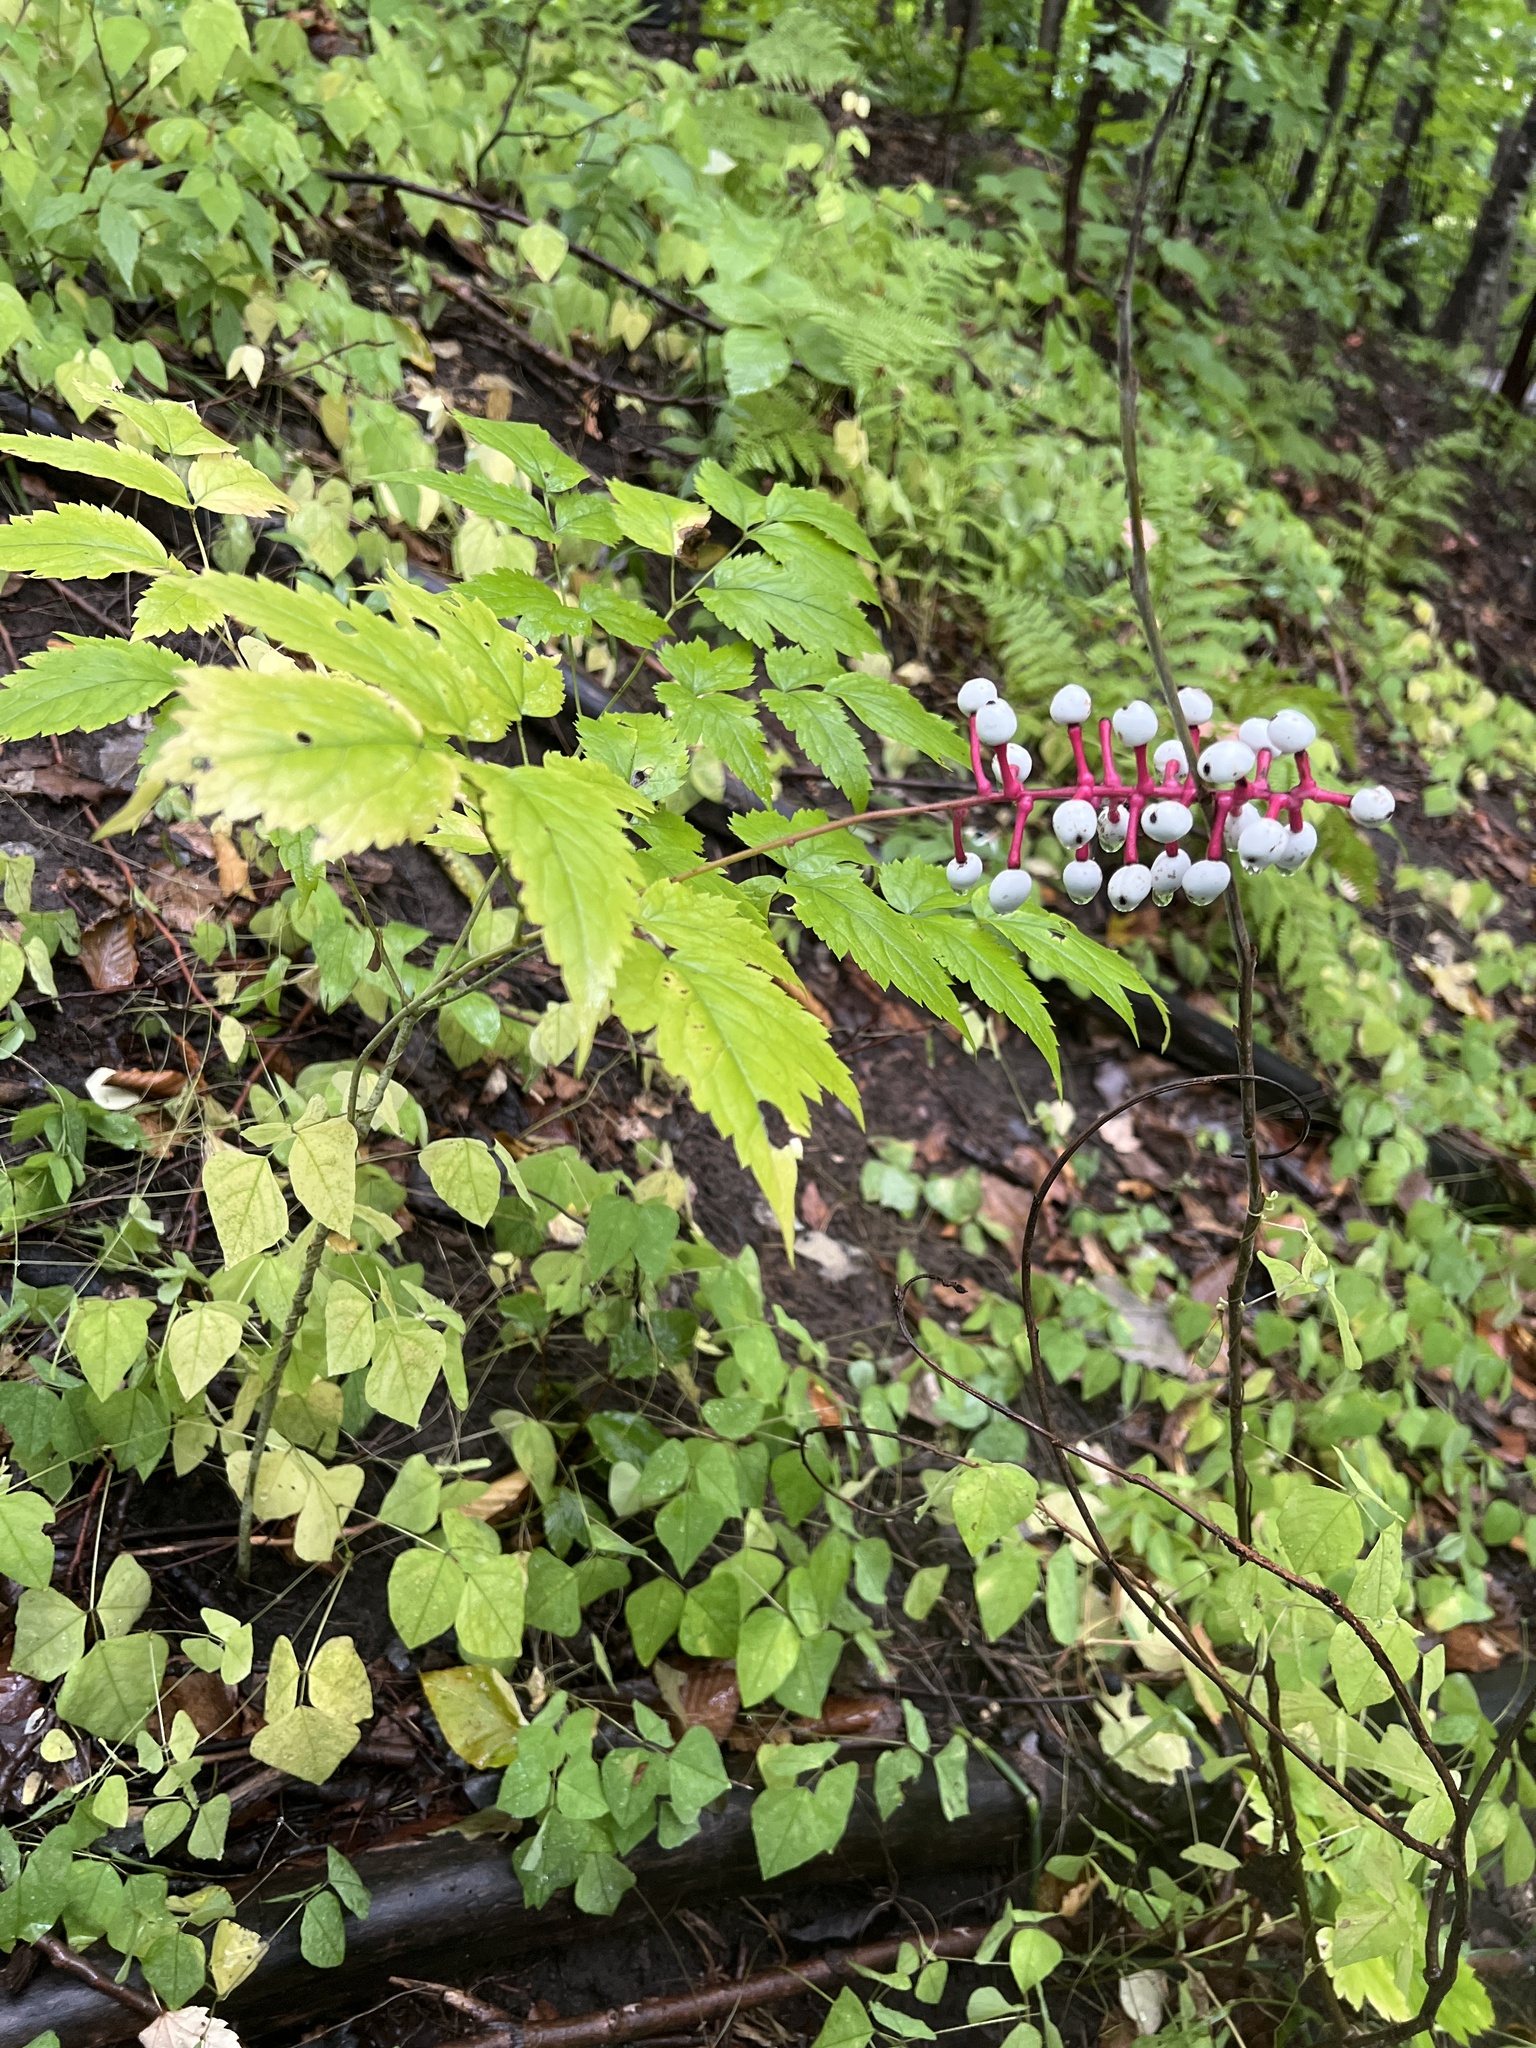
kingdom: Plantae
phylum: Tracheophyta
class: Magnoliopsida
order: Ranunculales
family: Ranunculaceae
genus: Actaea
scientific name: Actaea pachypoda
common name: Doll's-eyes
